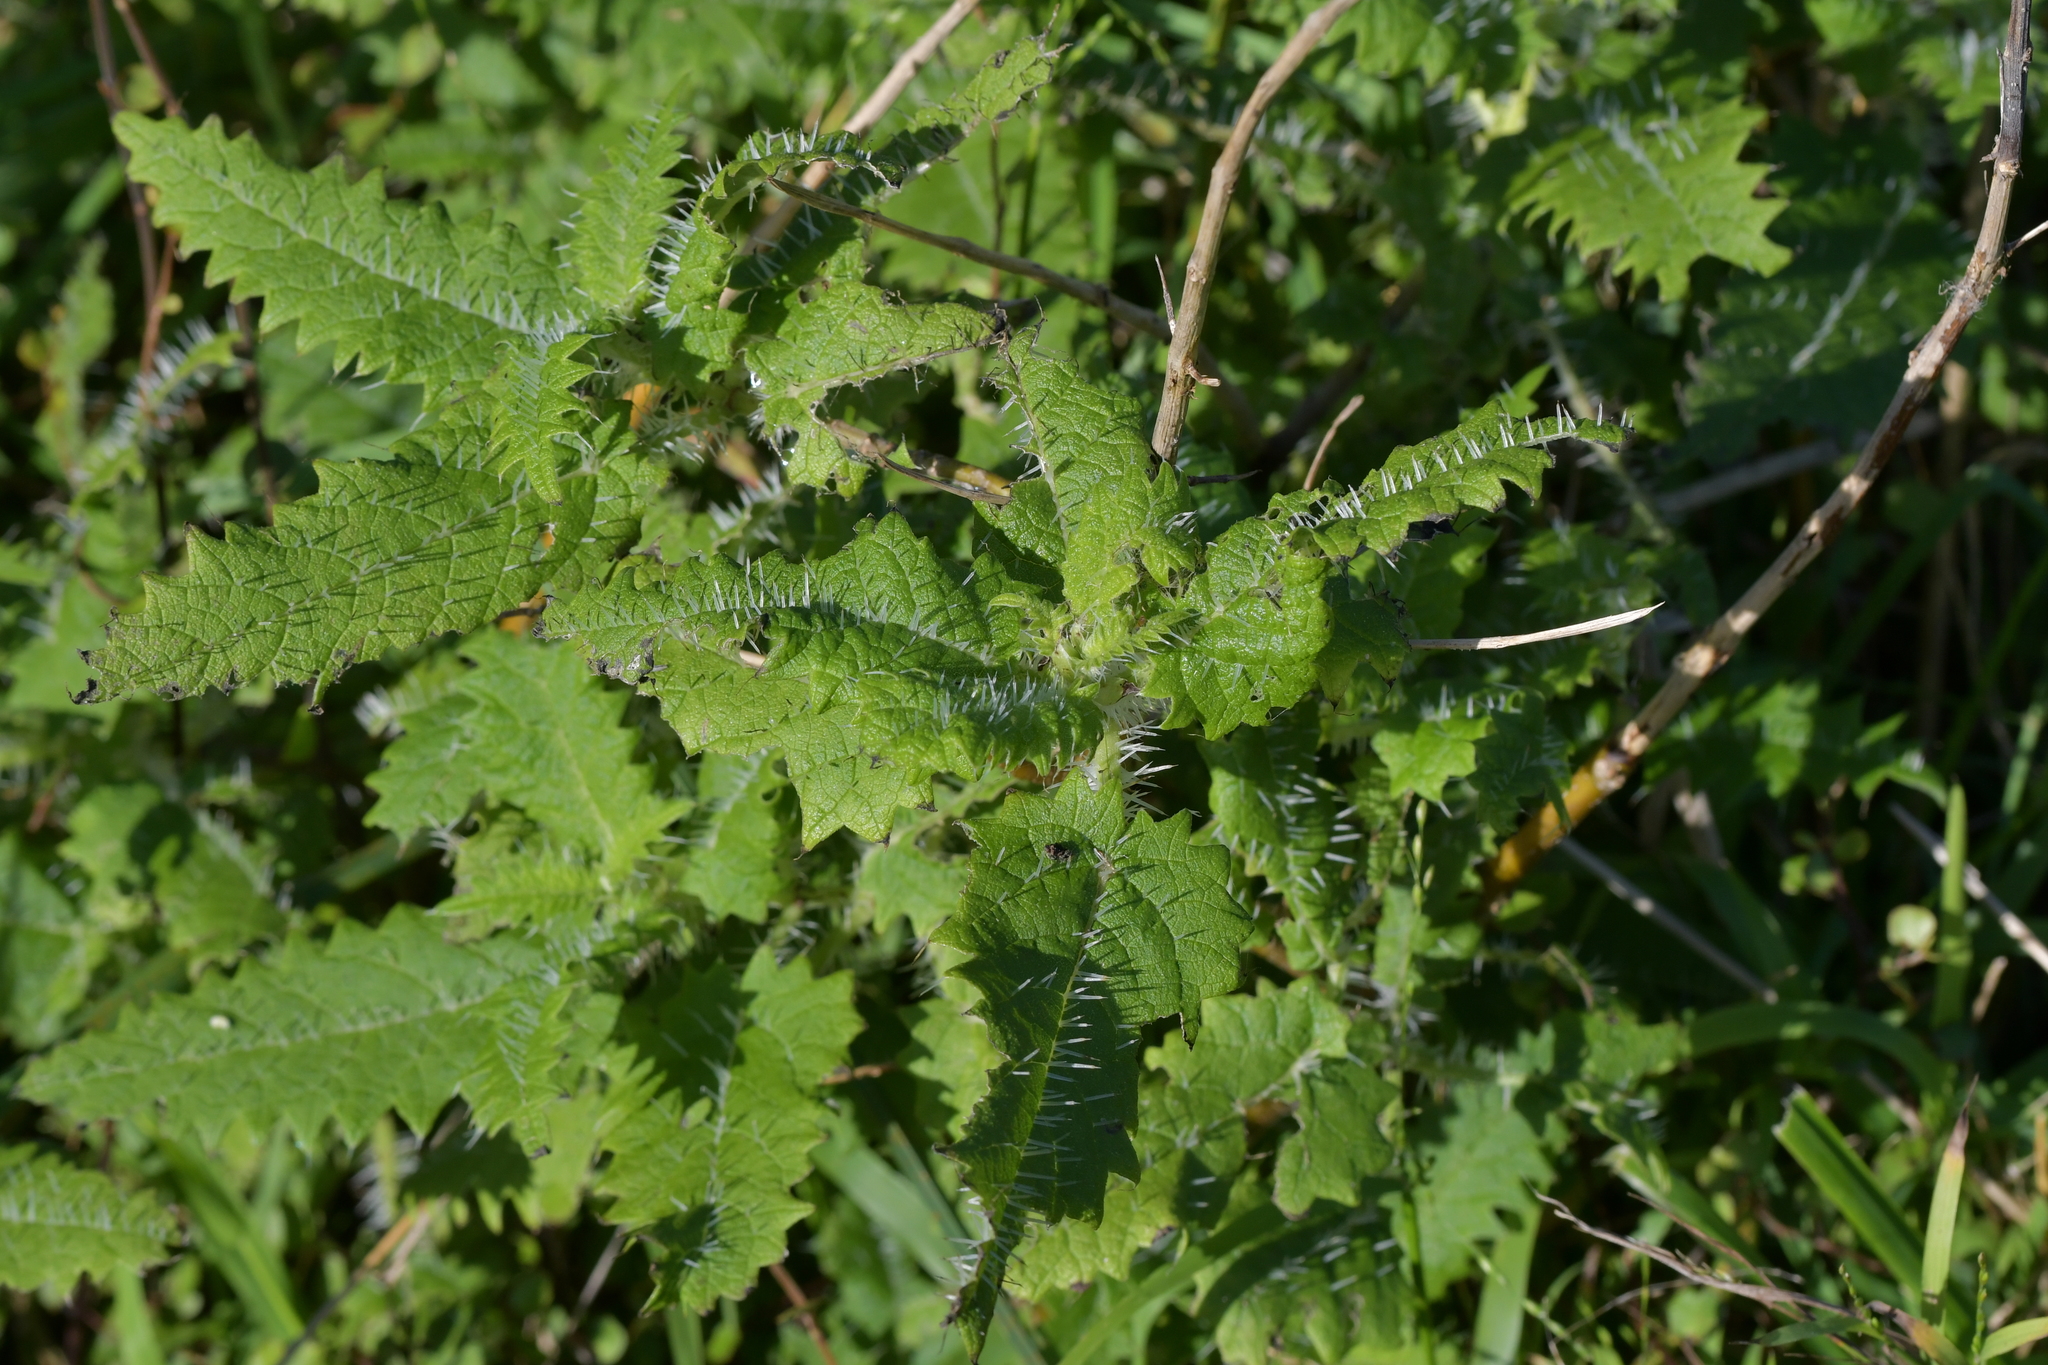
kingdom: Plantae
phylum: Tracheophyta
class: Magnoliopsida
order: Rosales
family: Urticaceae
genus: Urtica
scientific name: Urtica ferox
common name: Tree nettle
